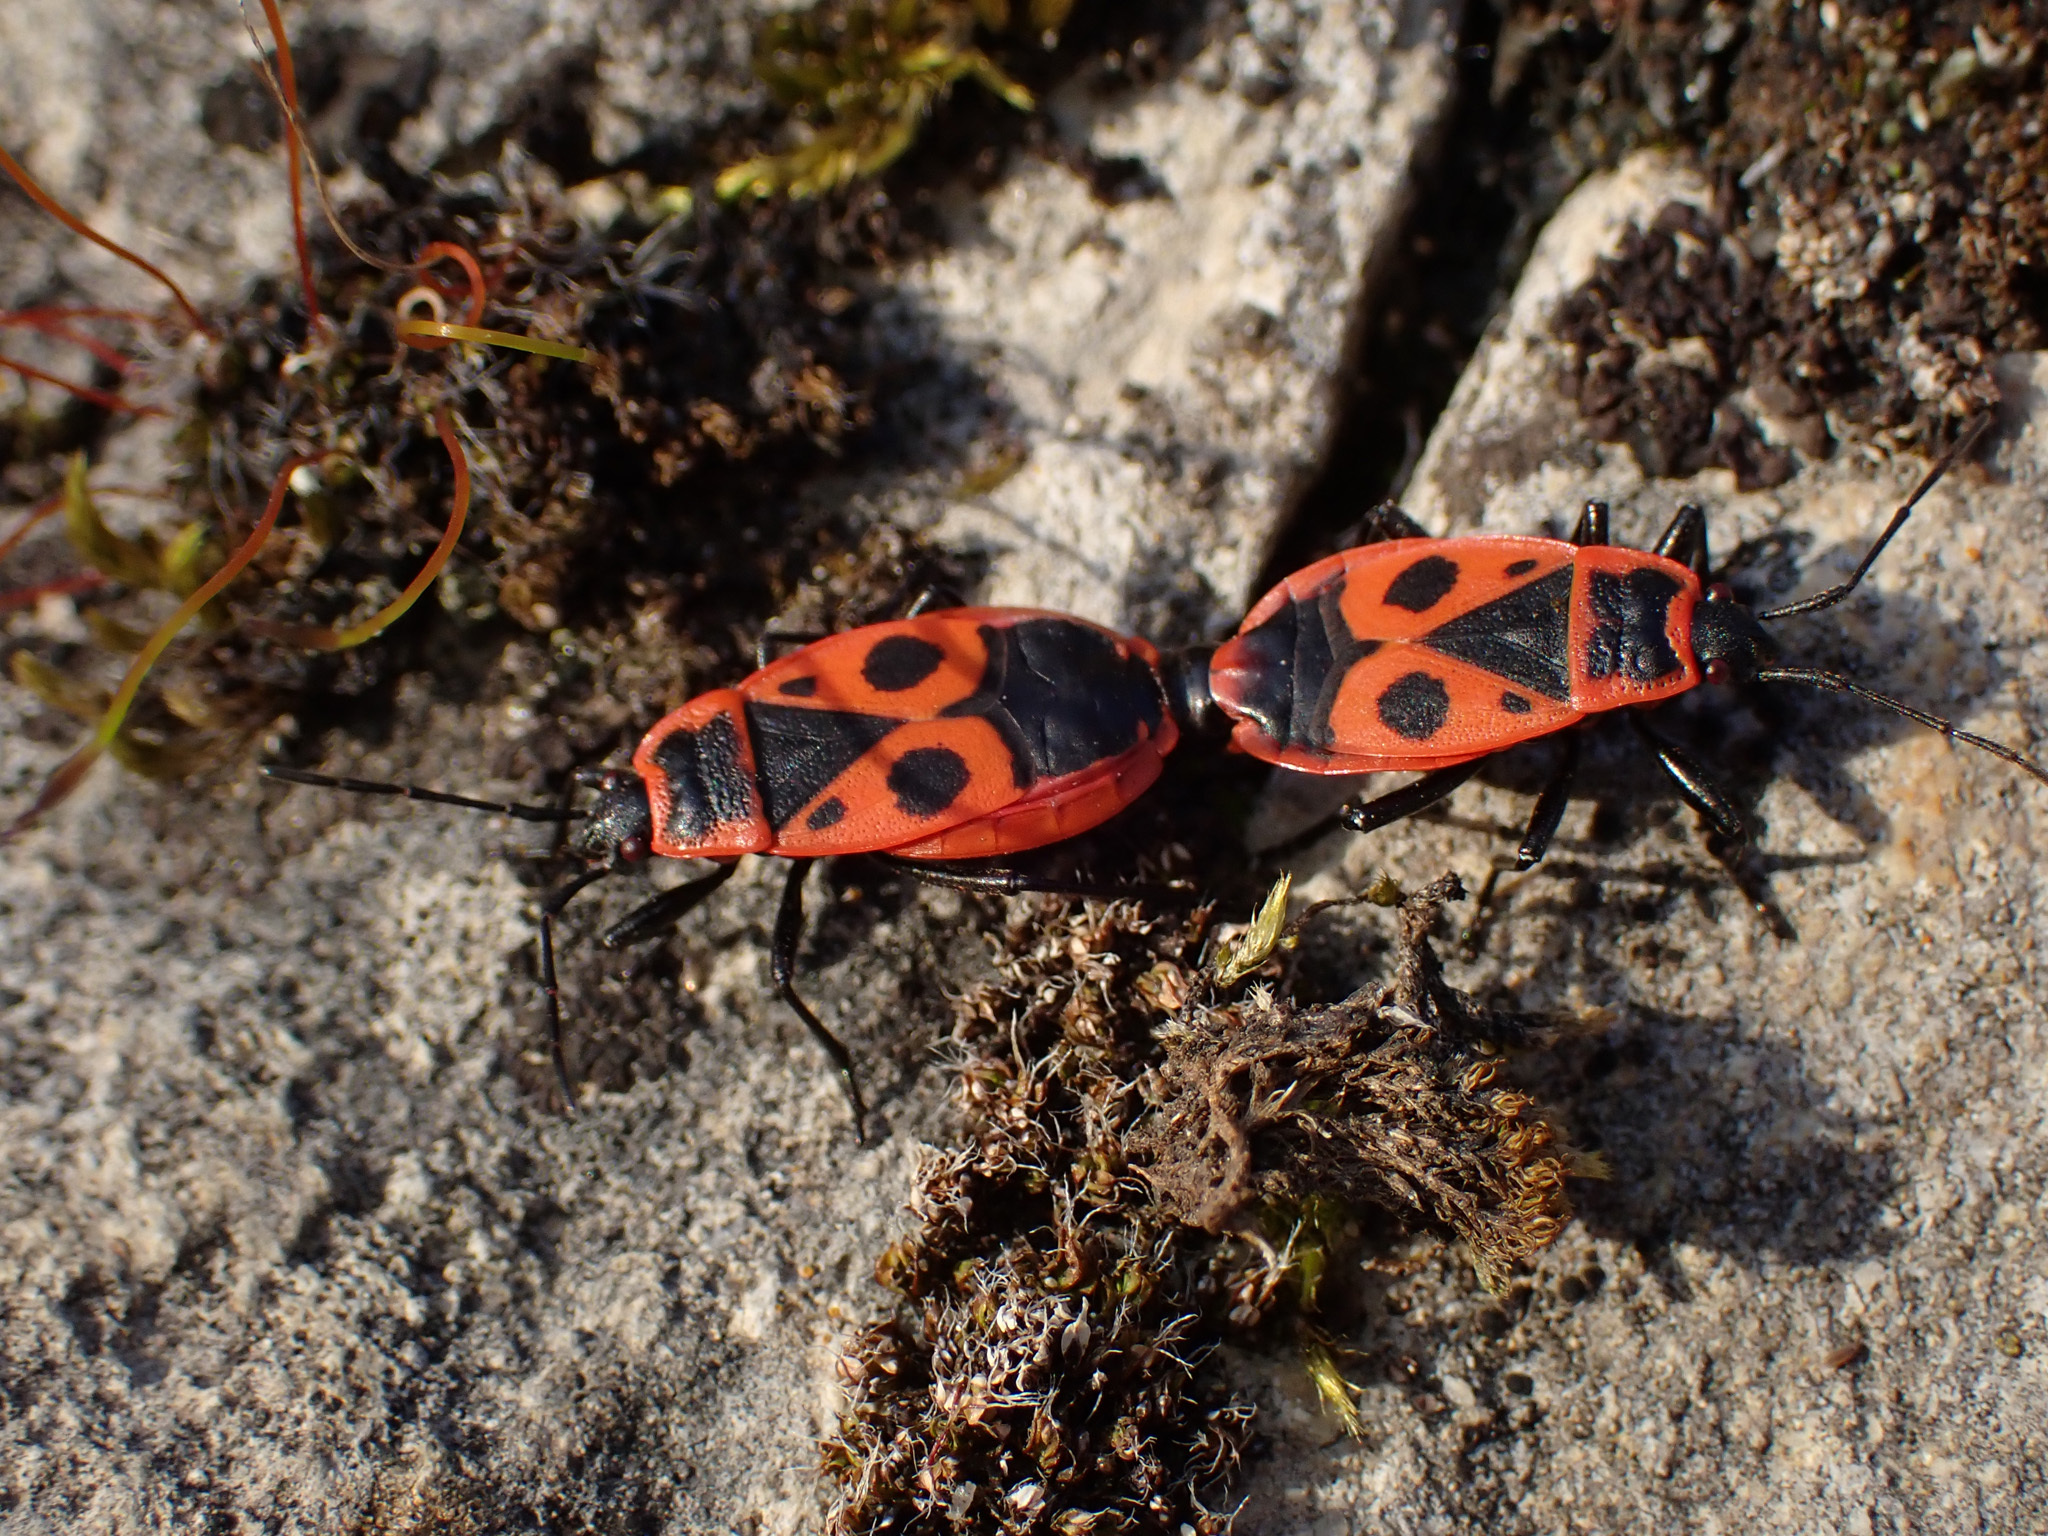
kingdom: Animalia
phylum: Arthropoda
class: Insecta
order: Hemiptera
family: Pyrrhocoridae
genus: Pyrrhocoris
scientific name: Pyrrhocoris apterus
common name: Firebug
